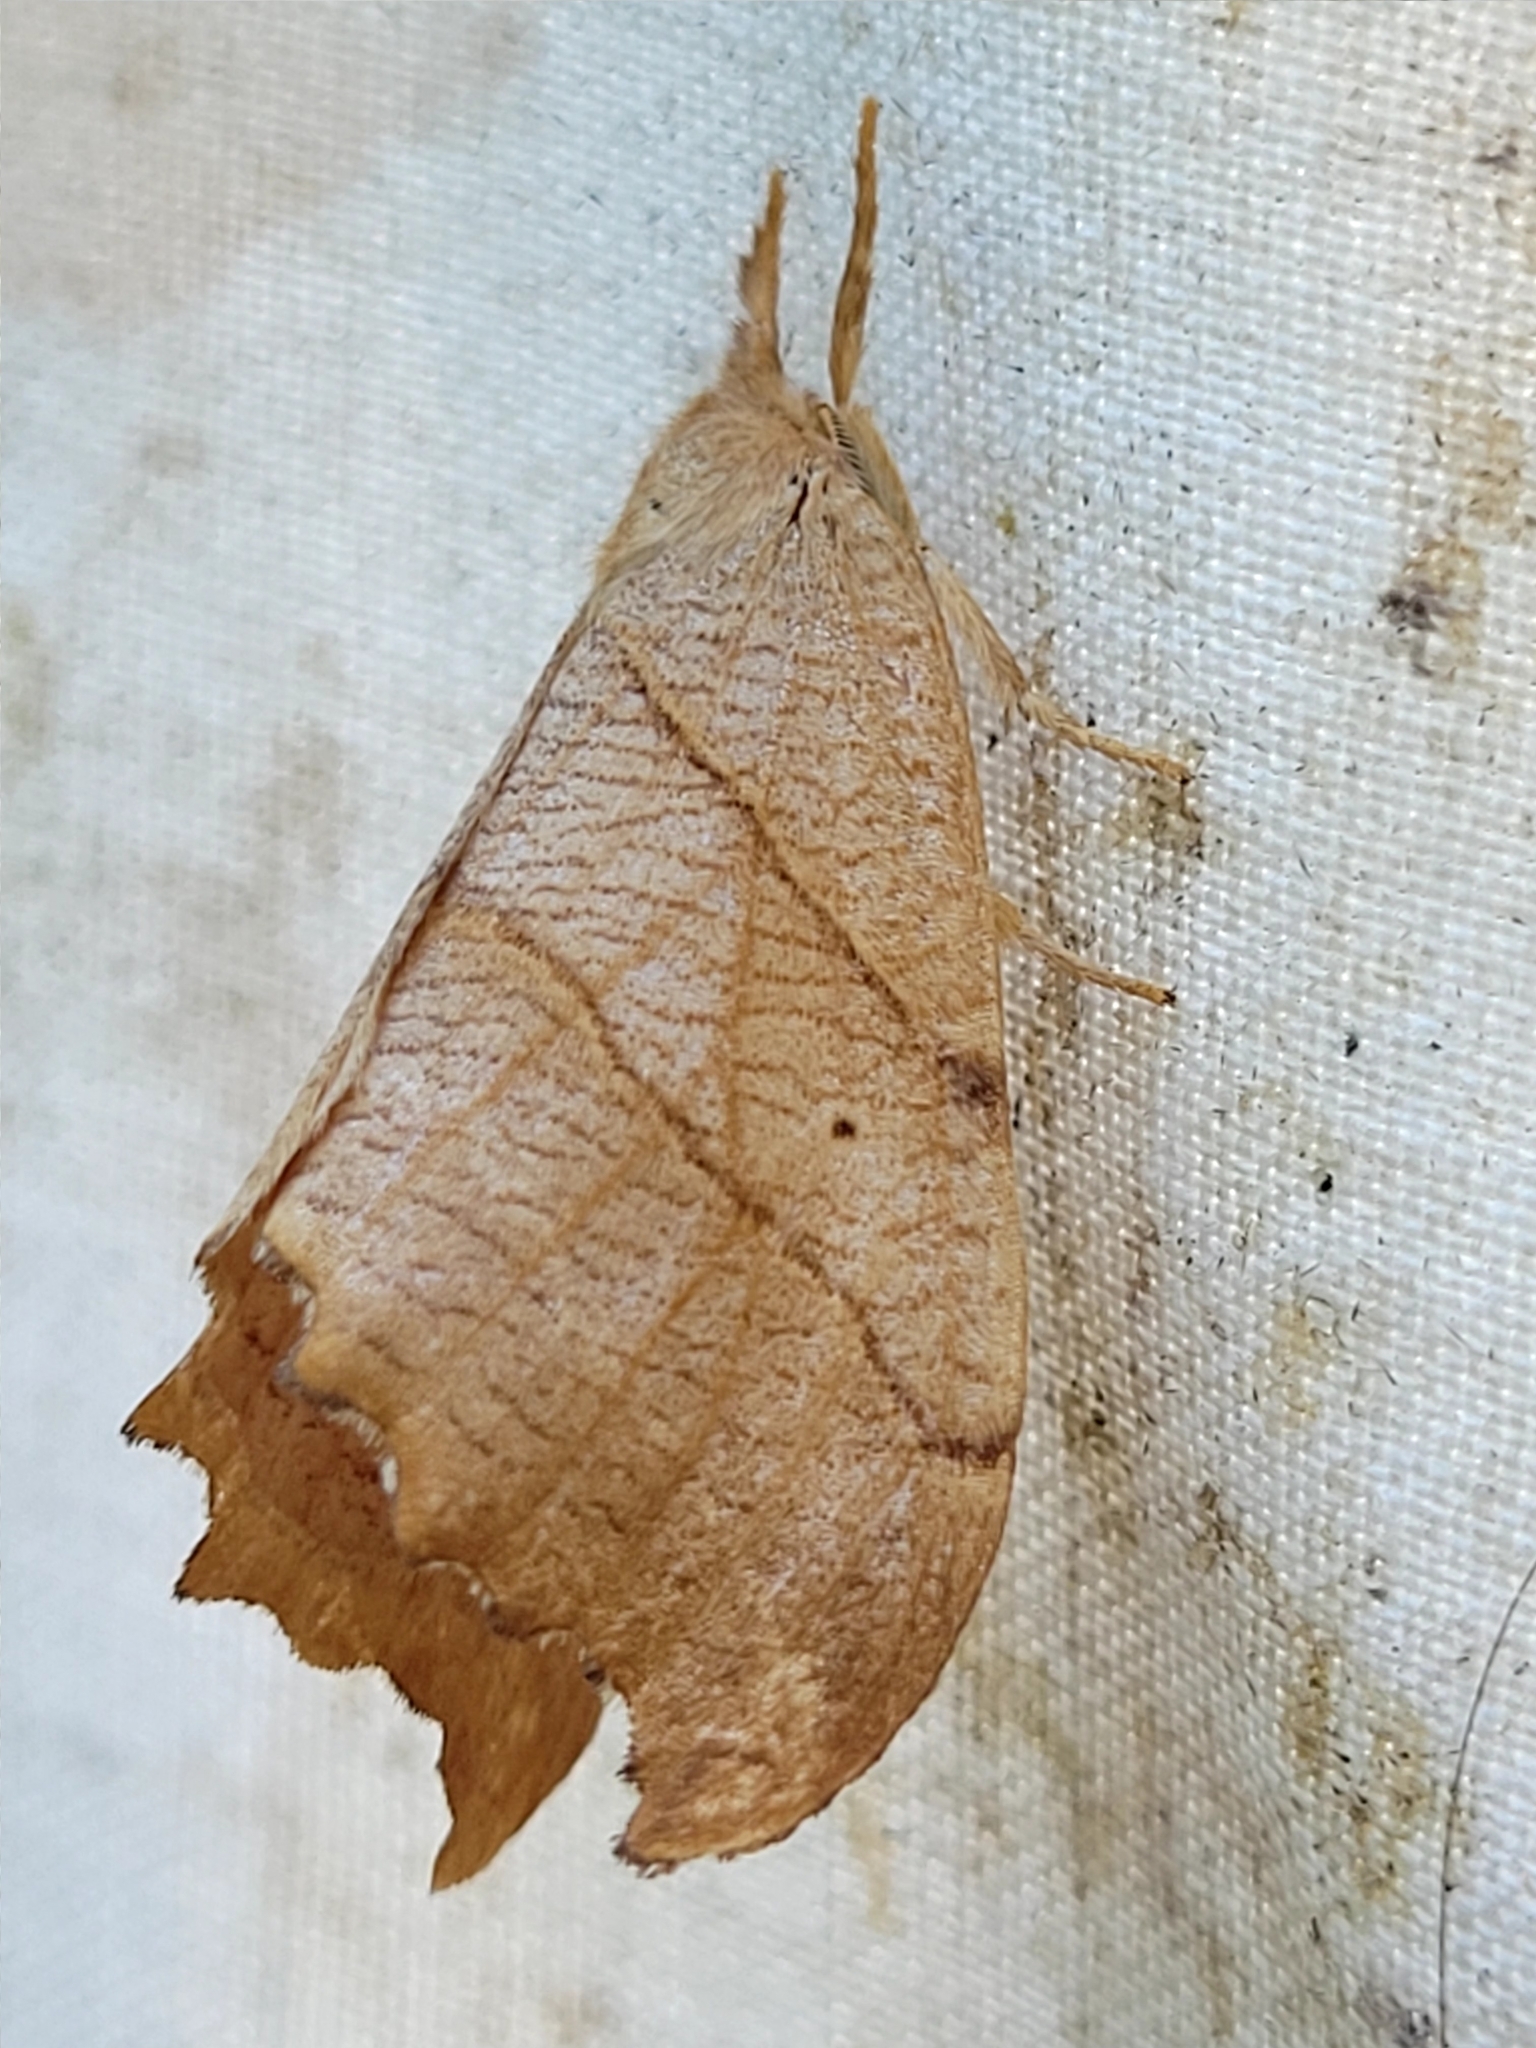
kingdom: Animalia
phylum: Arthropoda
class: Insecta
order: Lepidoptera
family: Drepanidae
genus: Falcaria
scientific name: Falcaria bilineata
